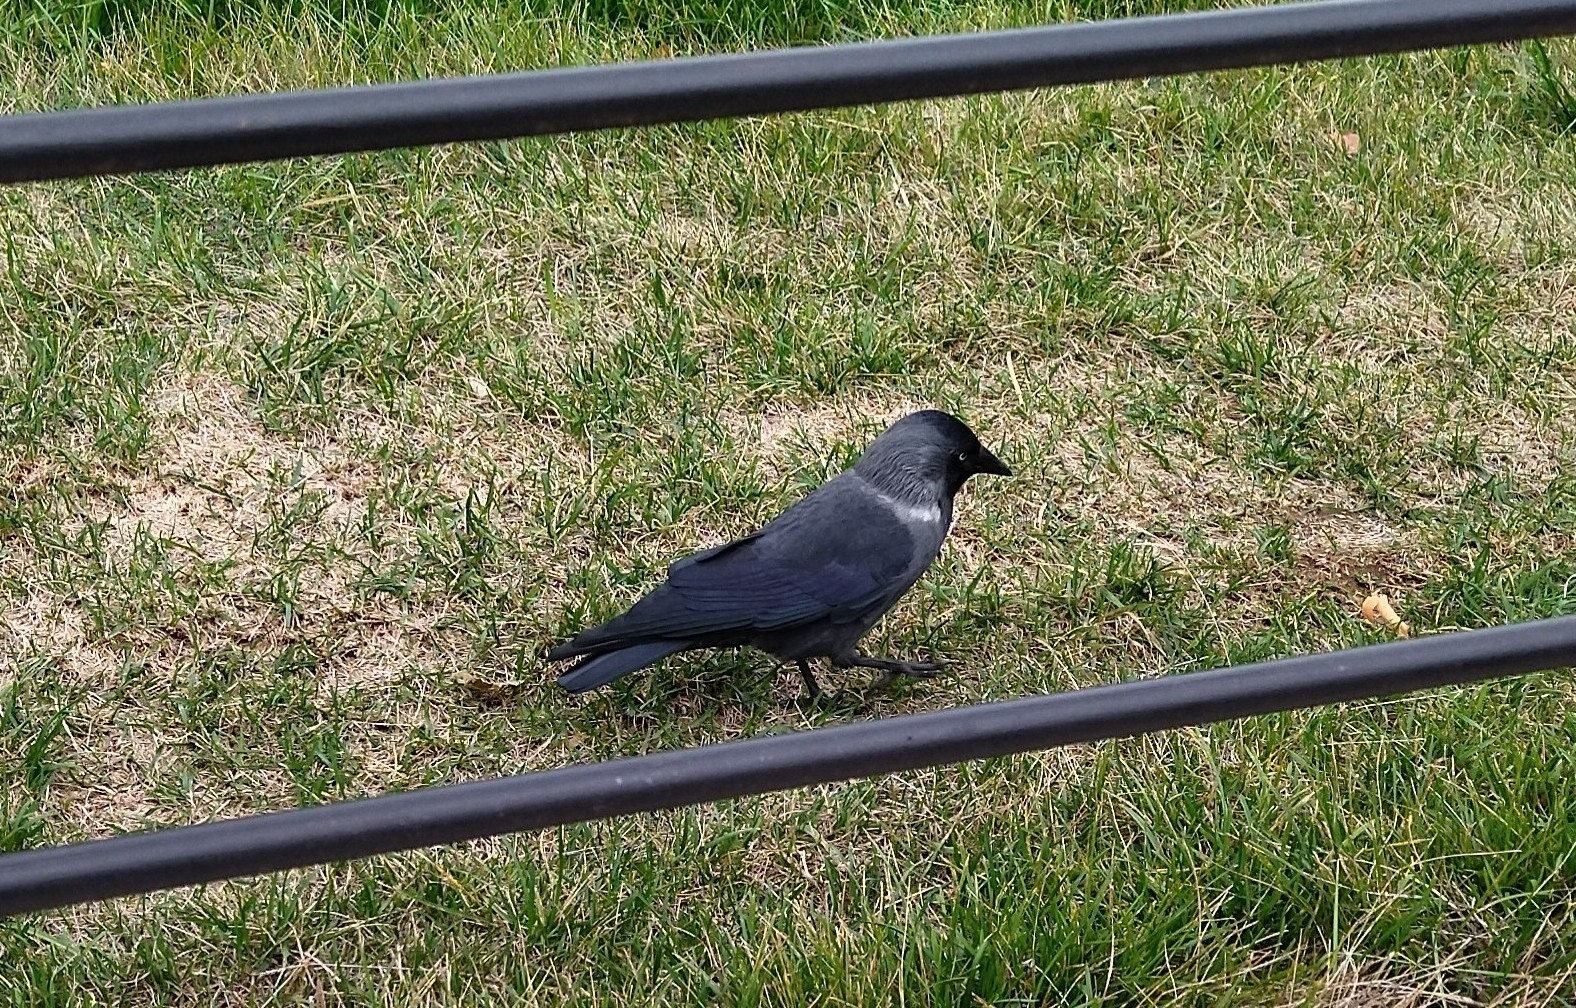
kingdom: Animalia
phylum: Chordata
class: Aves
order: Passeriformes
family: Corvidae
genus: Coloeus
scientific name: Coloeus monedula
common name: Western jackdaw
